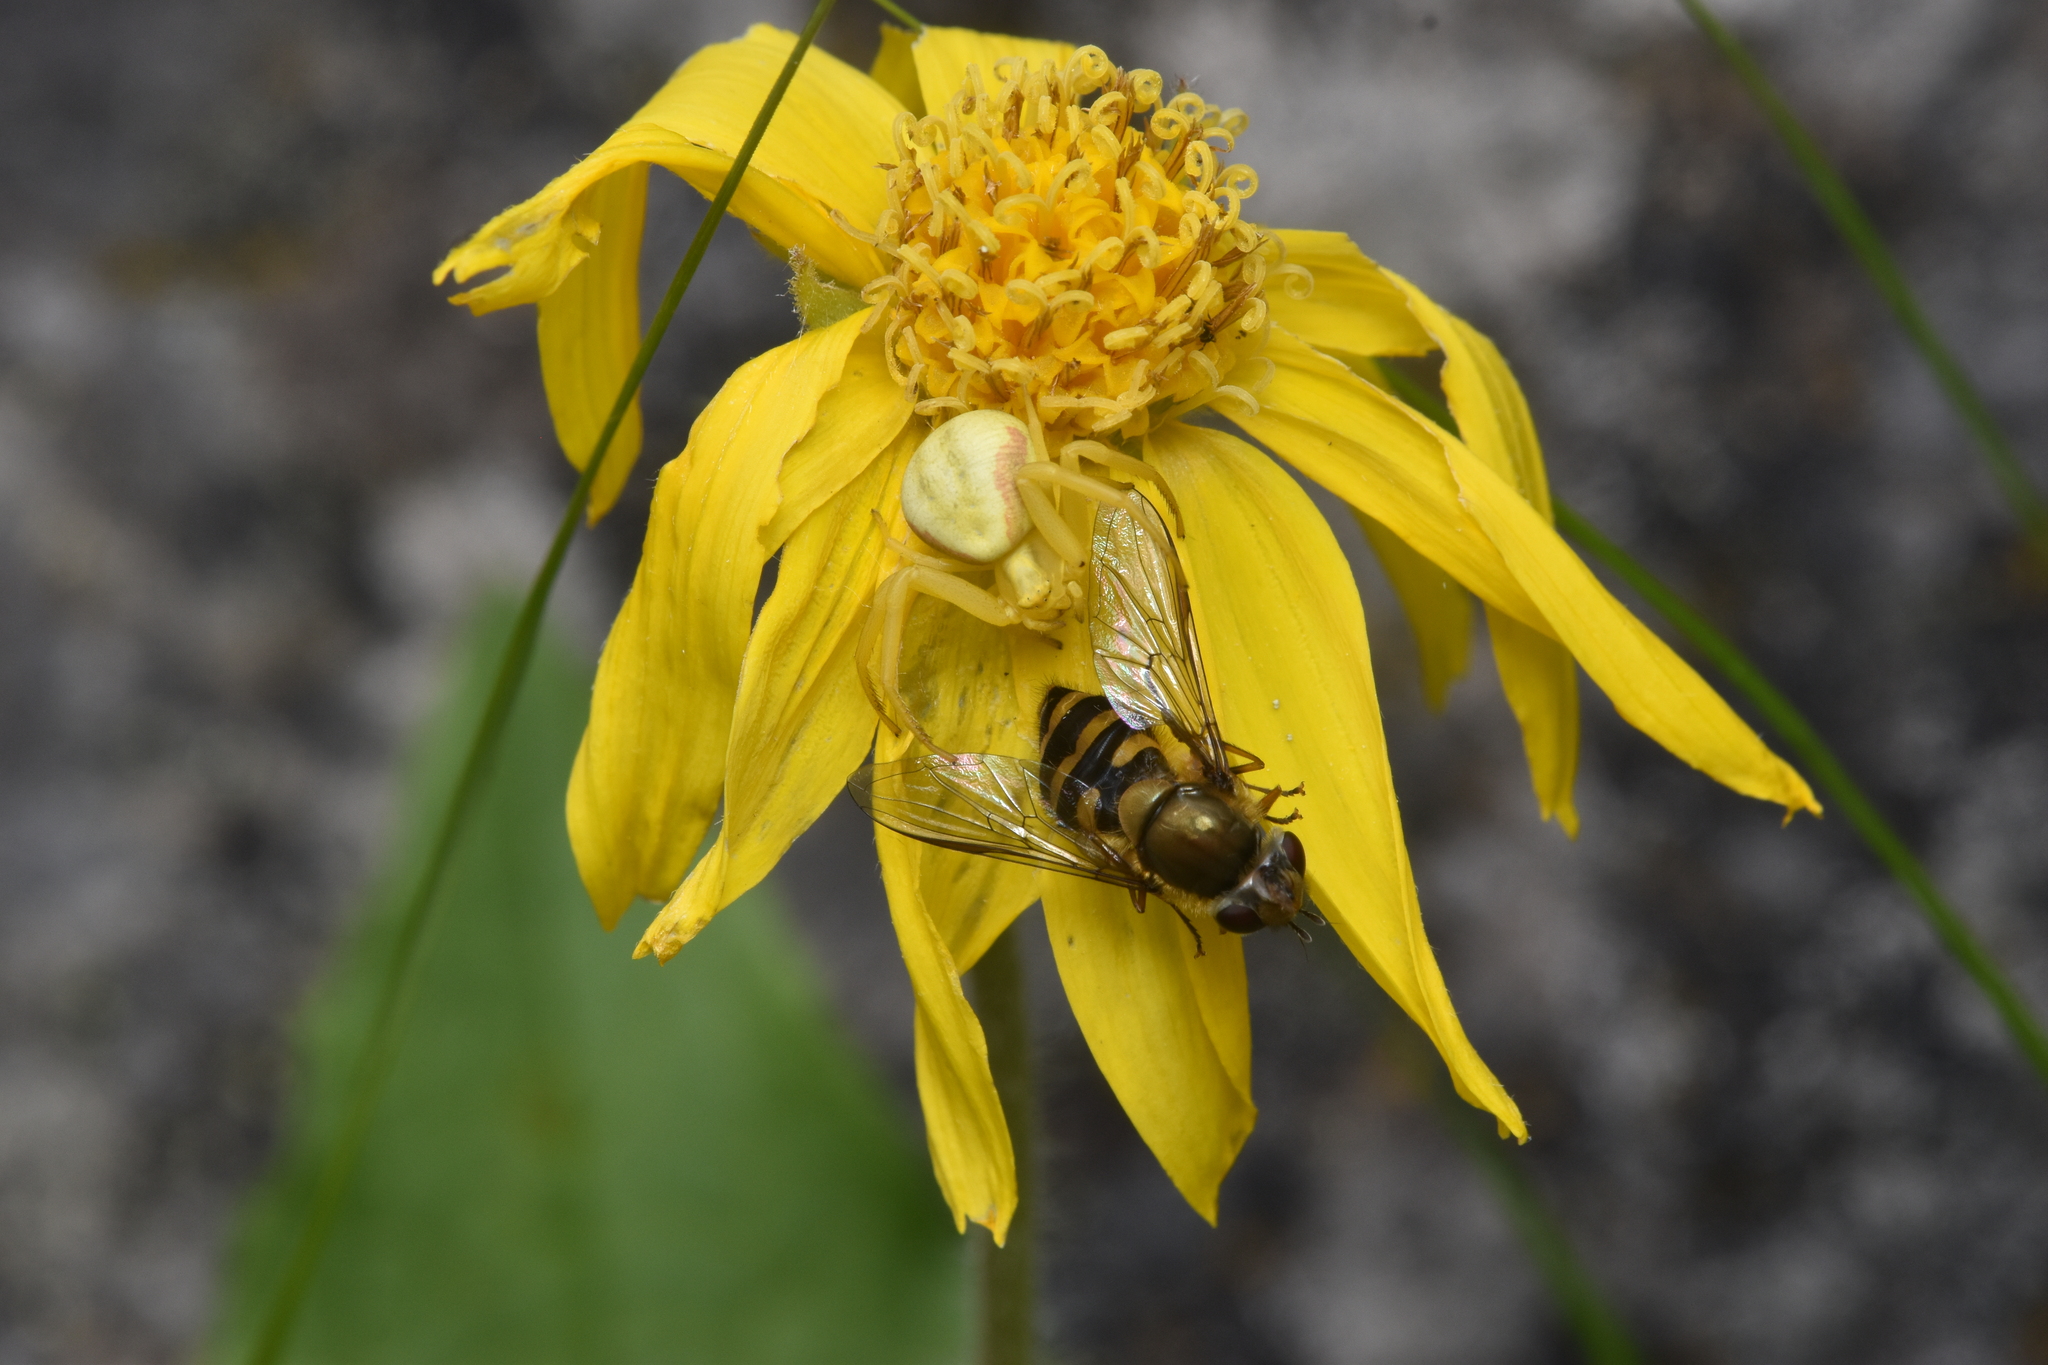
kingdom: Animalia
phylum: Arthropoda
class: Arachnida
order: Araneae
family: Thomisidae
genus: Misumena
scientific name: Misumena vatia
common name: Goldenrod crab spider
